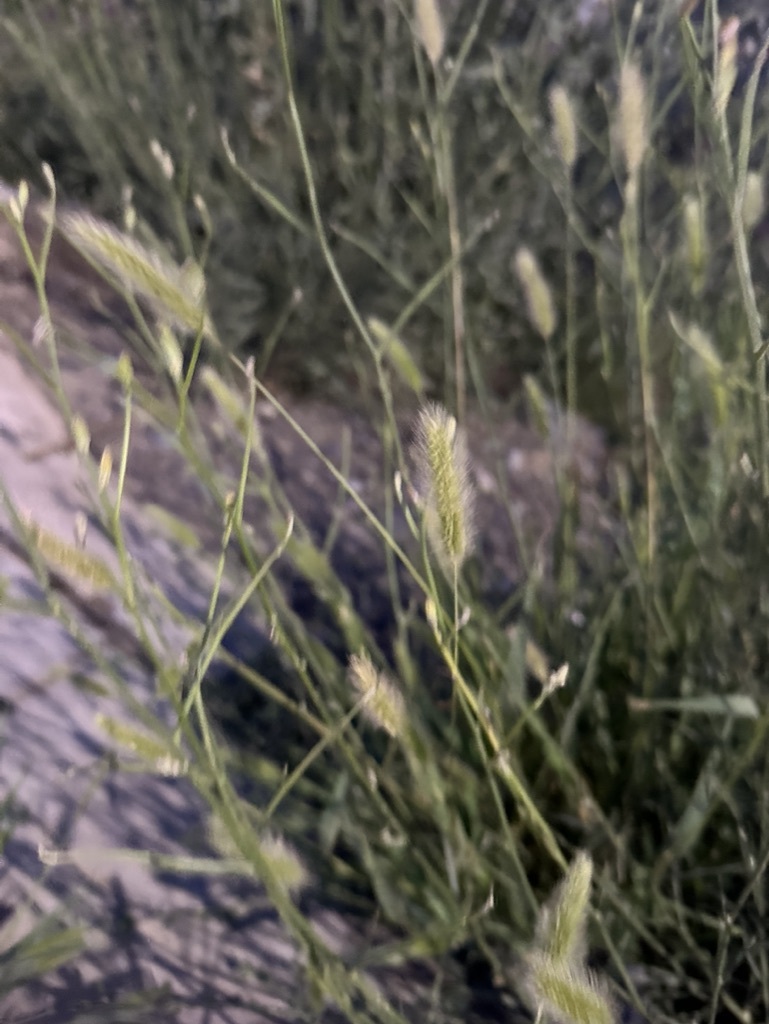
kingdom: Plantae
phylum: Tracheophyta
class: Liliopsida
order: Poales
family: Poaceae
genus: Setaria
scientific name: Setaria viridis
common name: Green bristlegrass
